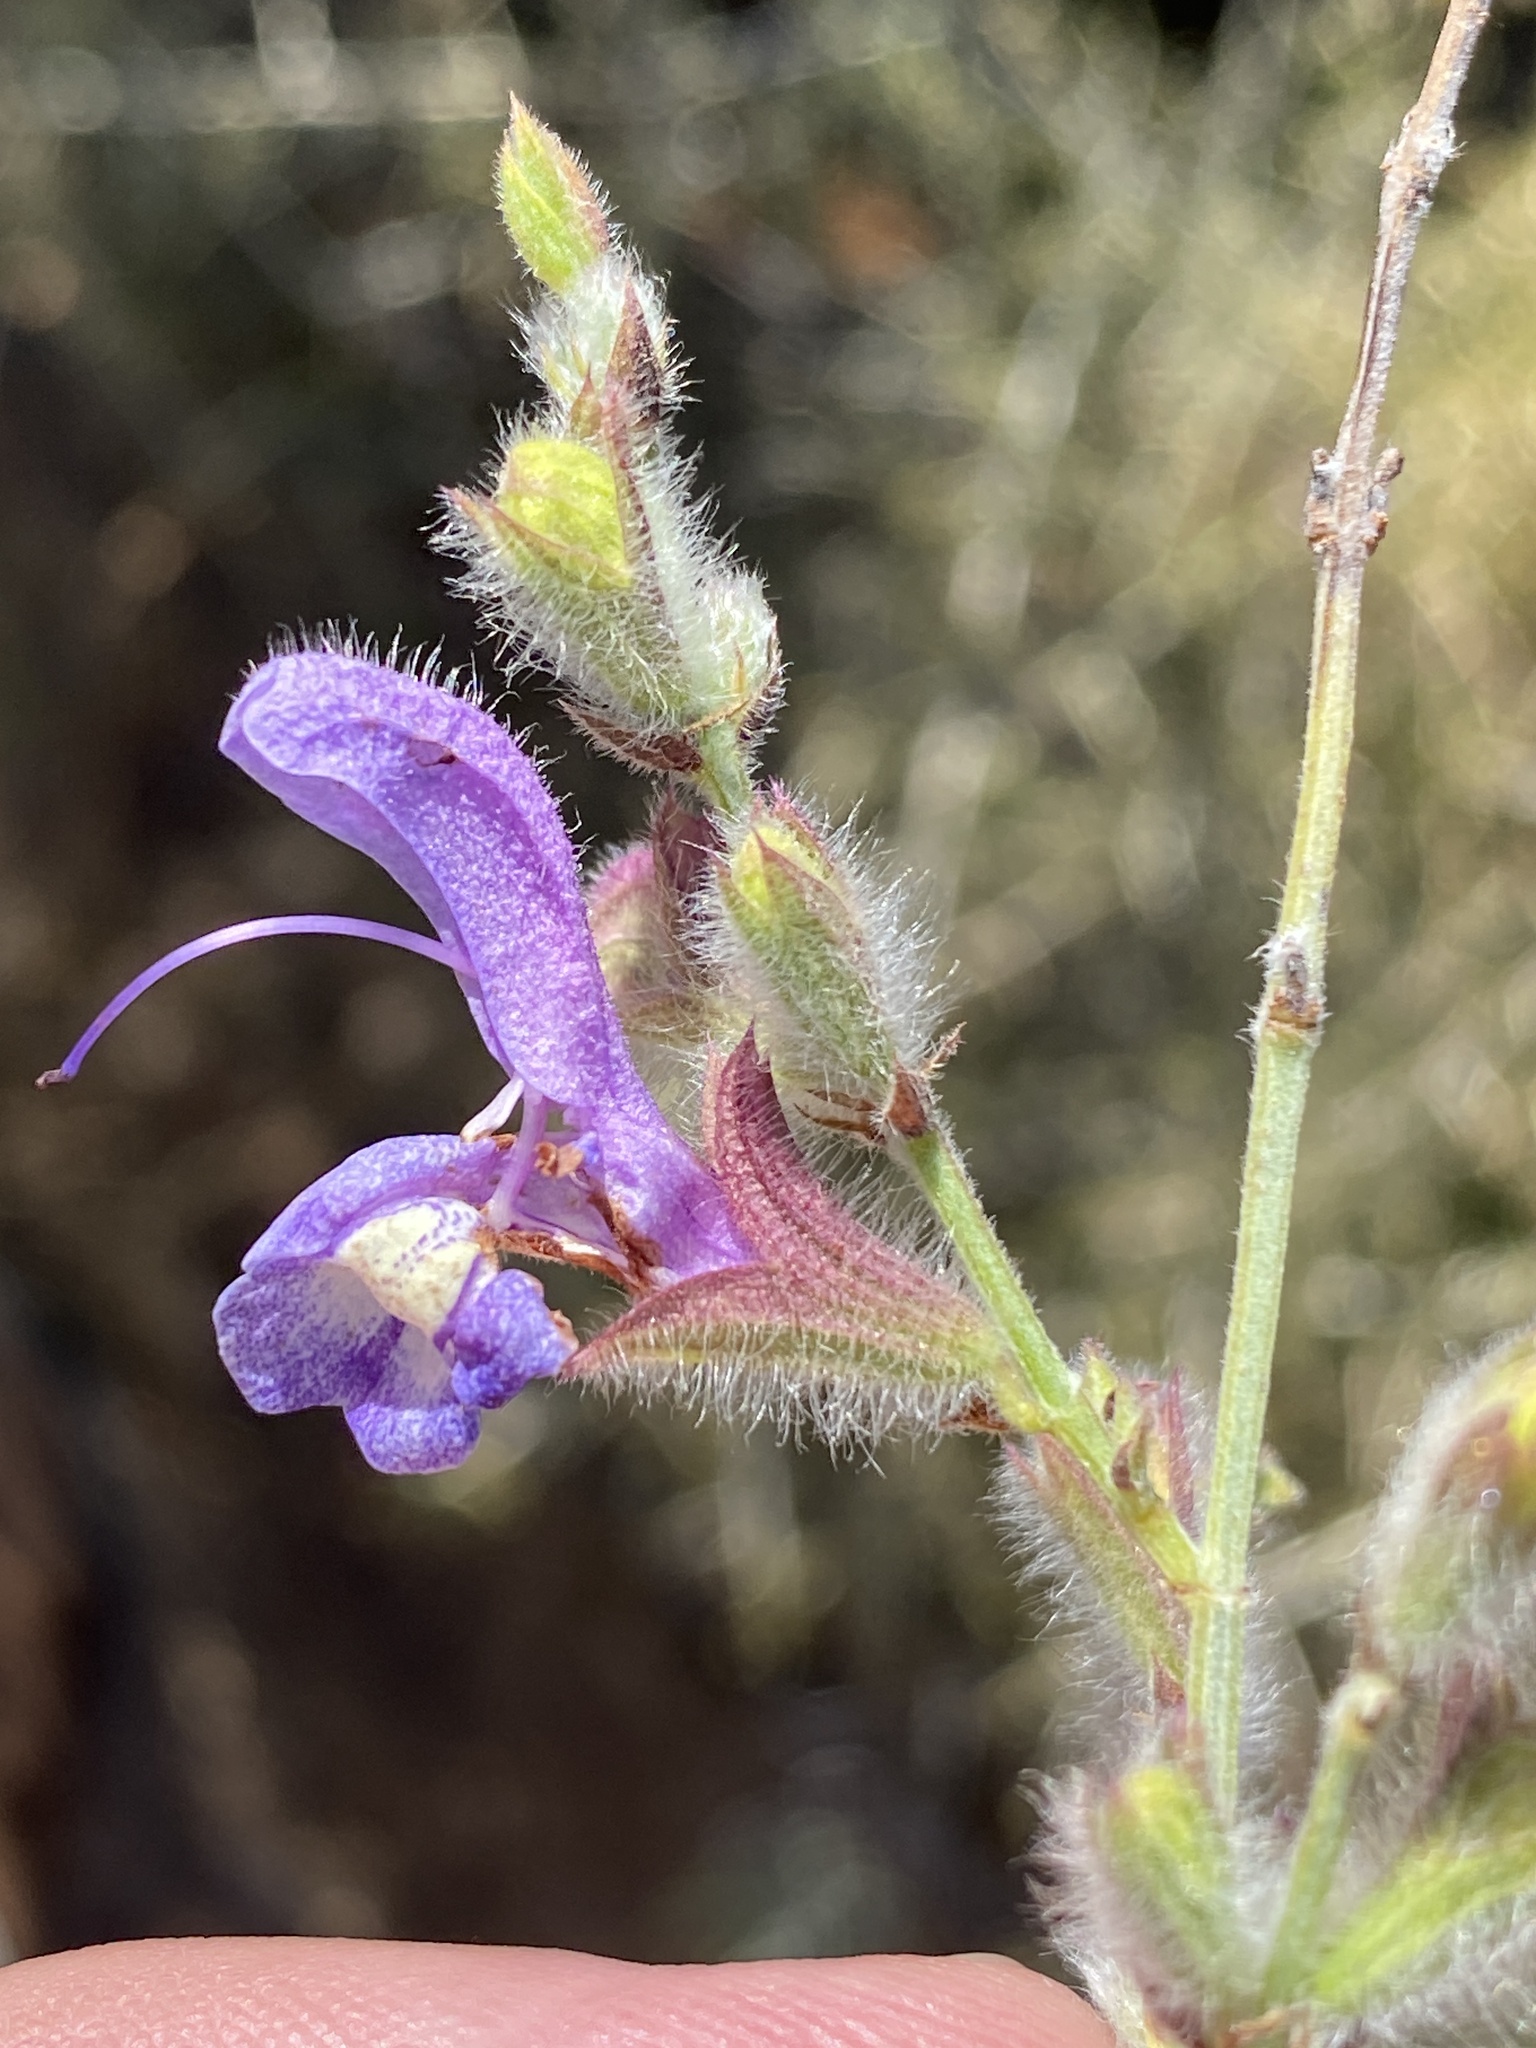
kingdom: Plantae
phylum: Tracheophyta
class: Magnoliopsida
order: Lamiales
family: Lamiaceae
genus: Salvia
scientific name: Salvia albicaulis
